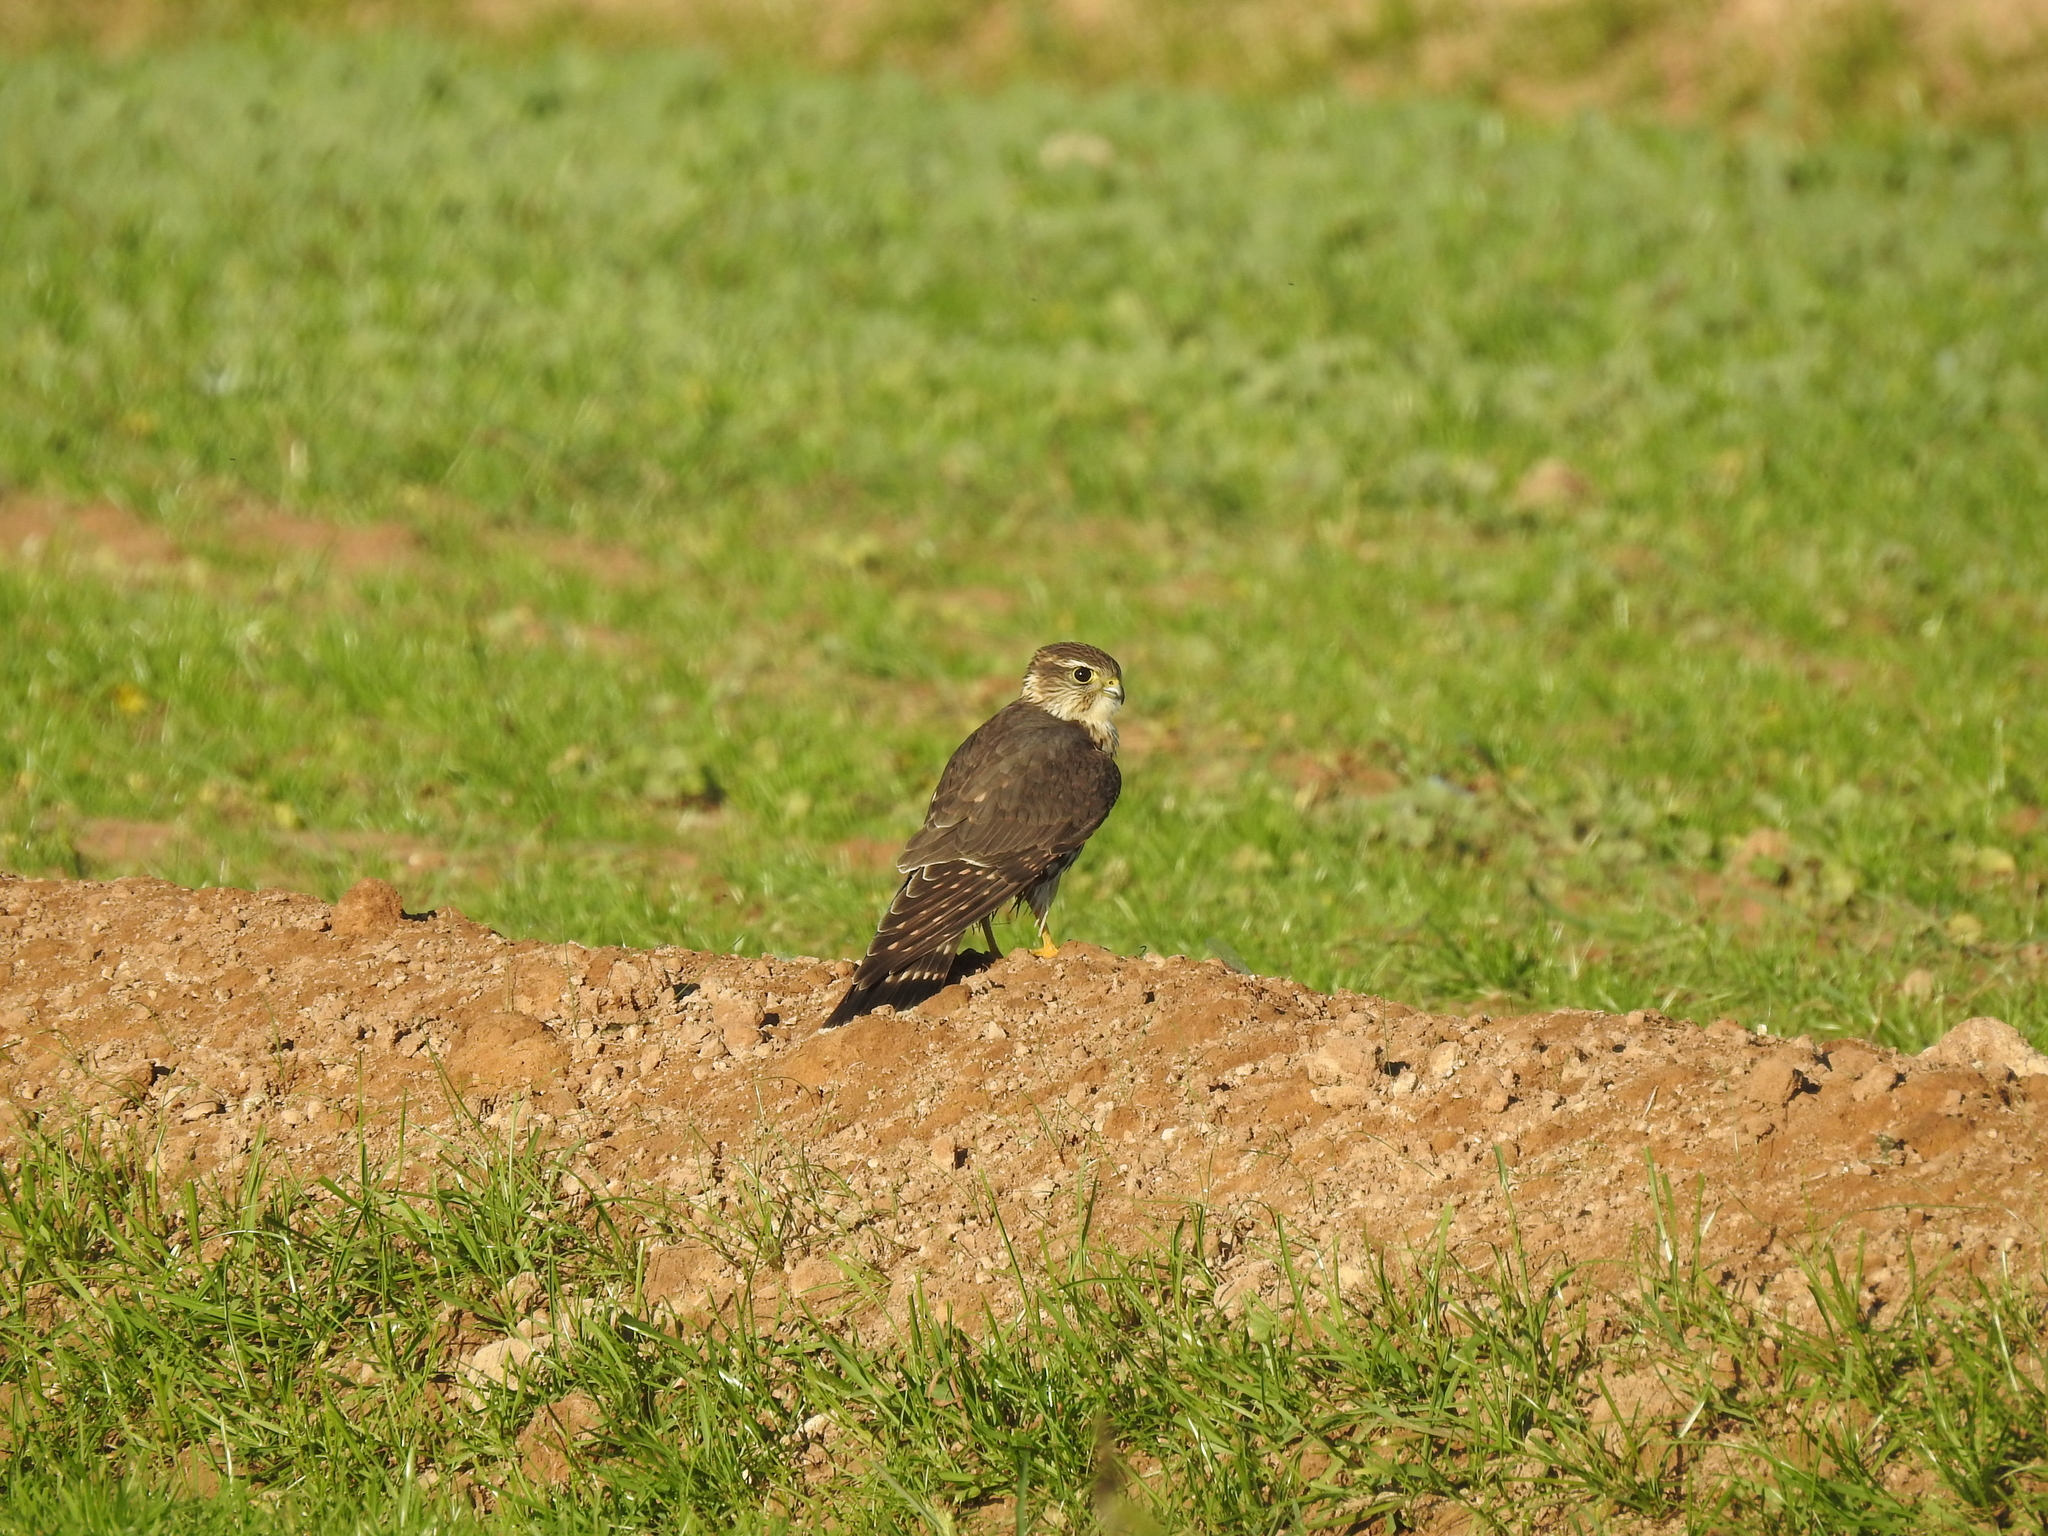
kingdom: Animalia
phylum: Chordata
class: Aves
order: Falconiformes
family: Falconidae
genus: Falco
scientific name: Falco columbarius
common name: Merlin
